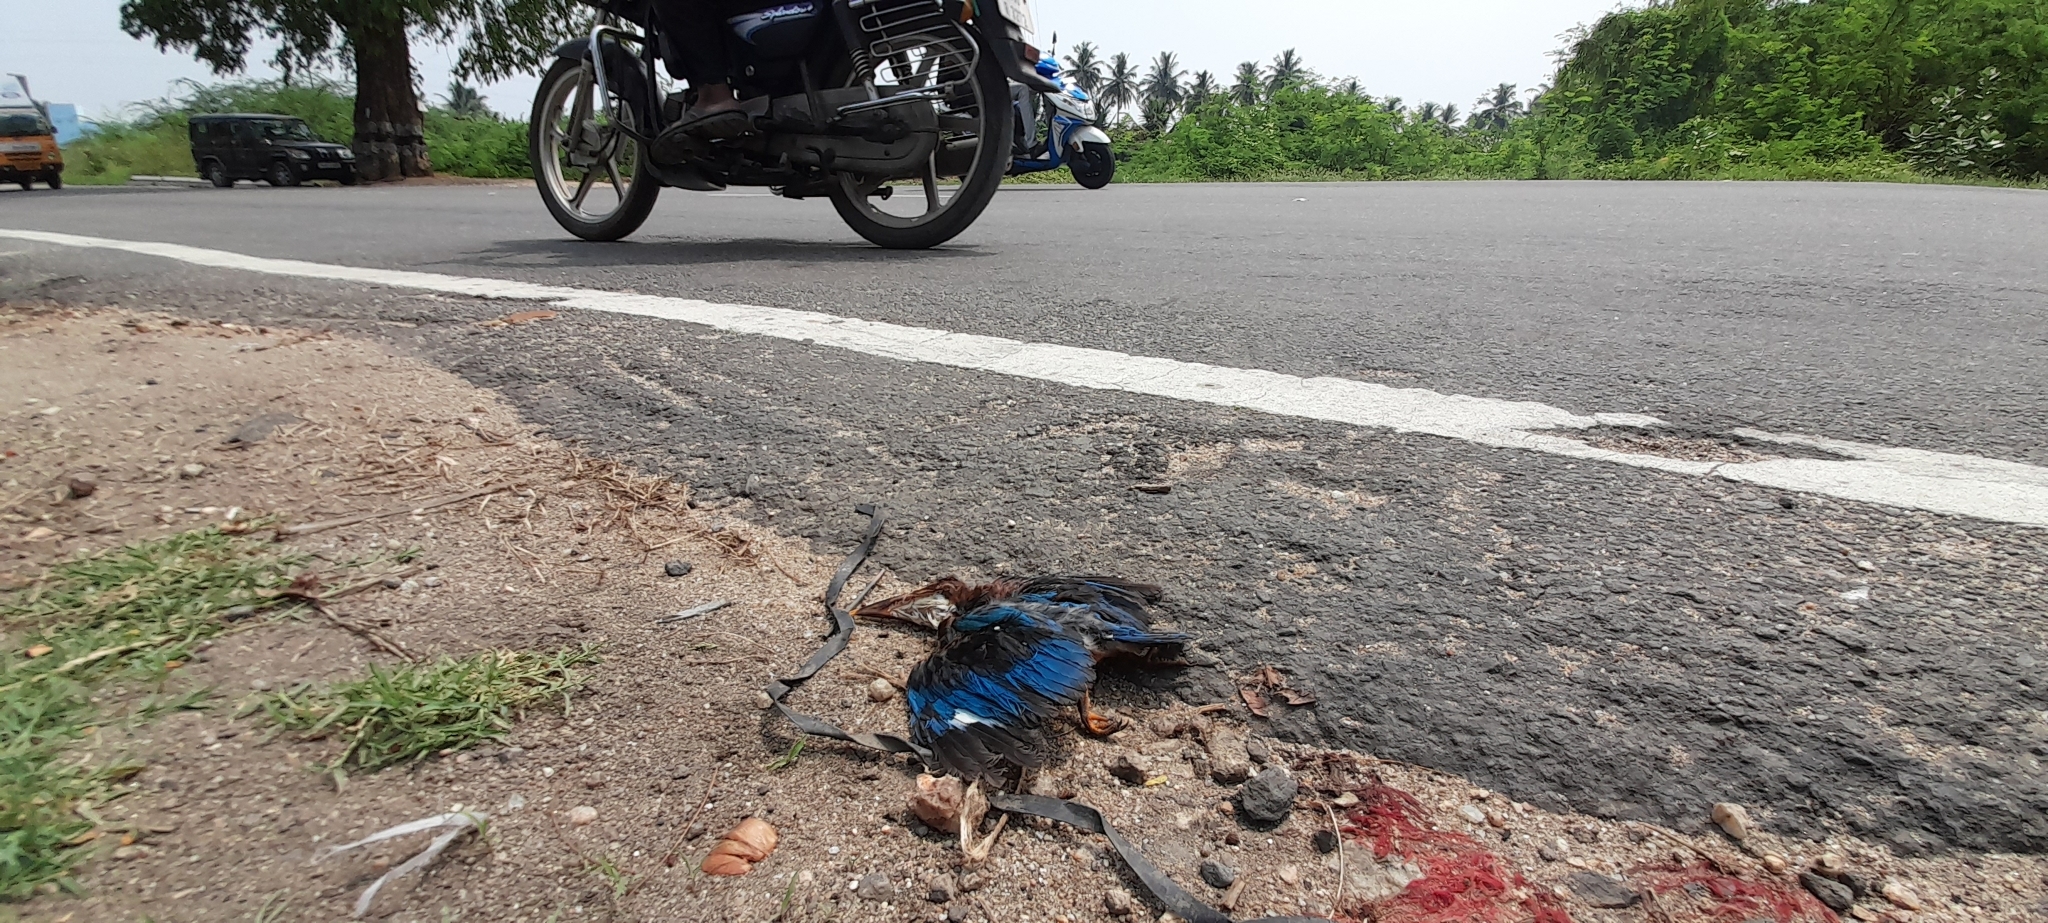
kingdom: Animalia
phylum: Chordata
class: Aves
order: Coraciiformes
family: Alcedinidae
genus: Halcyon
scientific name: Halcyon smyrnensis
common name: White-throated kingfisher
